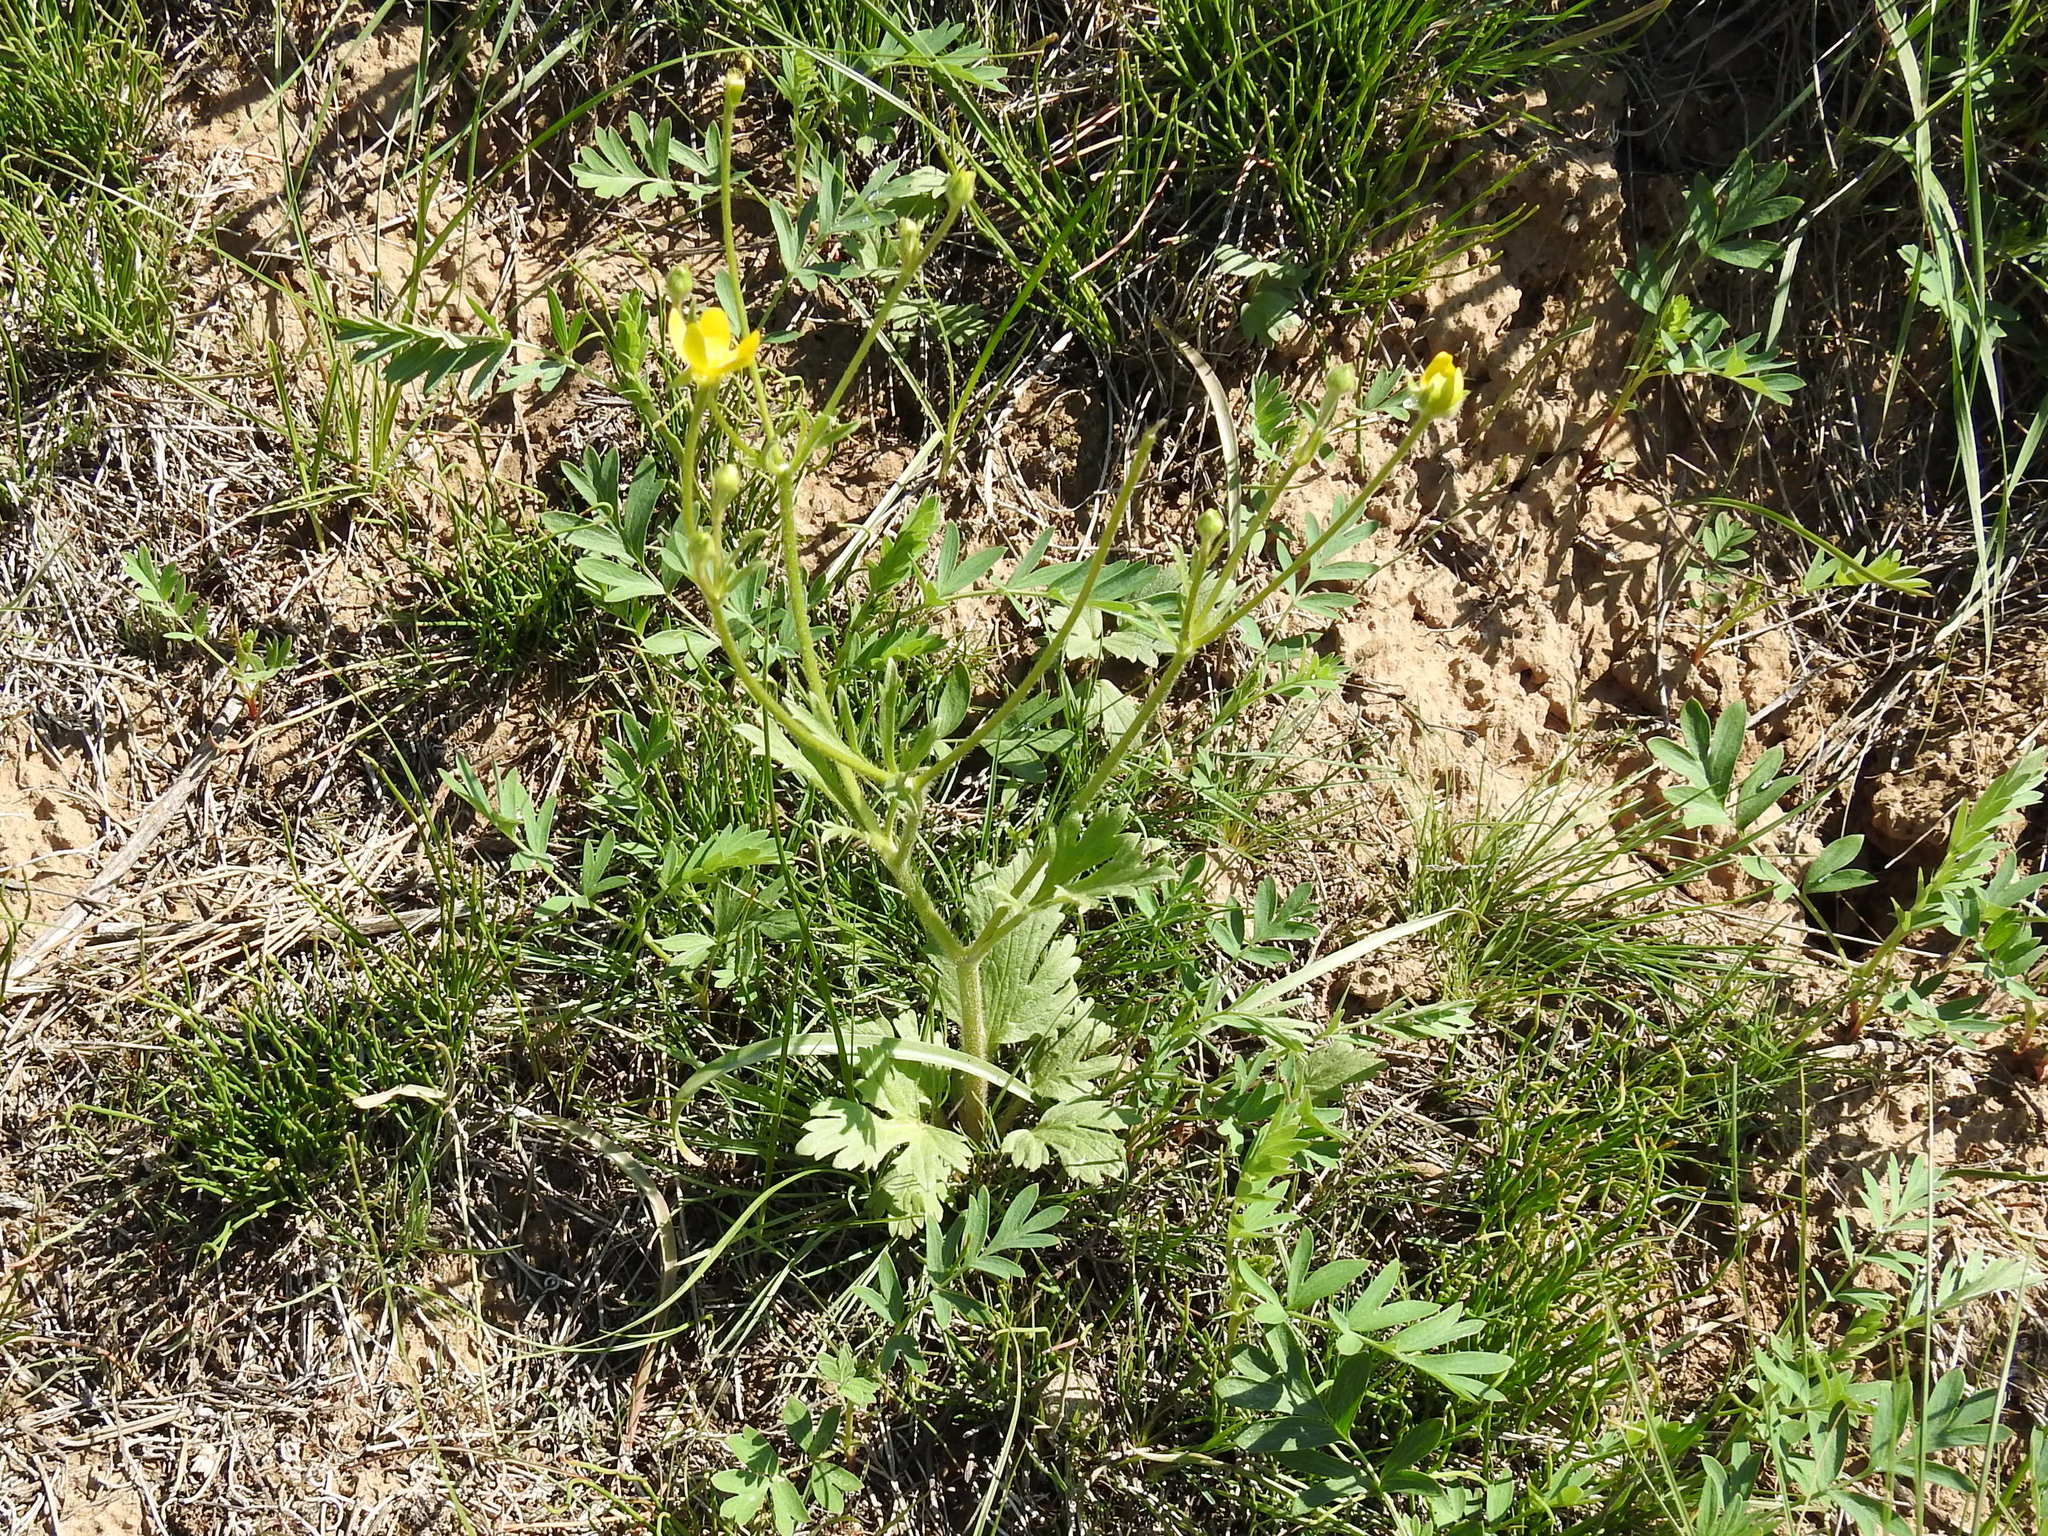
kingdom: Plantae
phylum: Tracheophyta
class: Magnoliopsida
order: Ranunculales
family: Ranunculaceae
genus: Ranunculus
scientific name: Ranunculus oxyspermus
